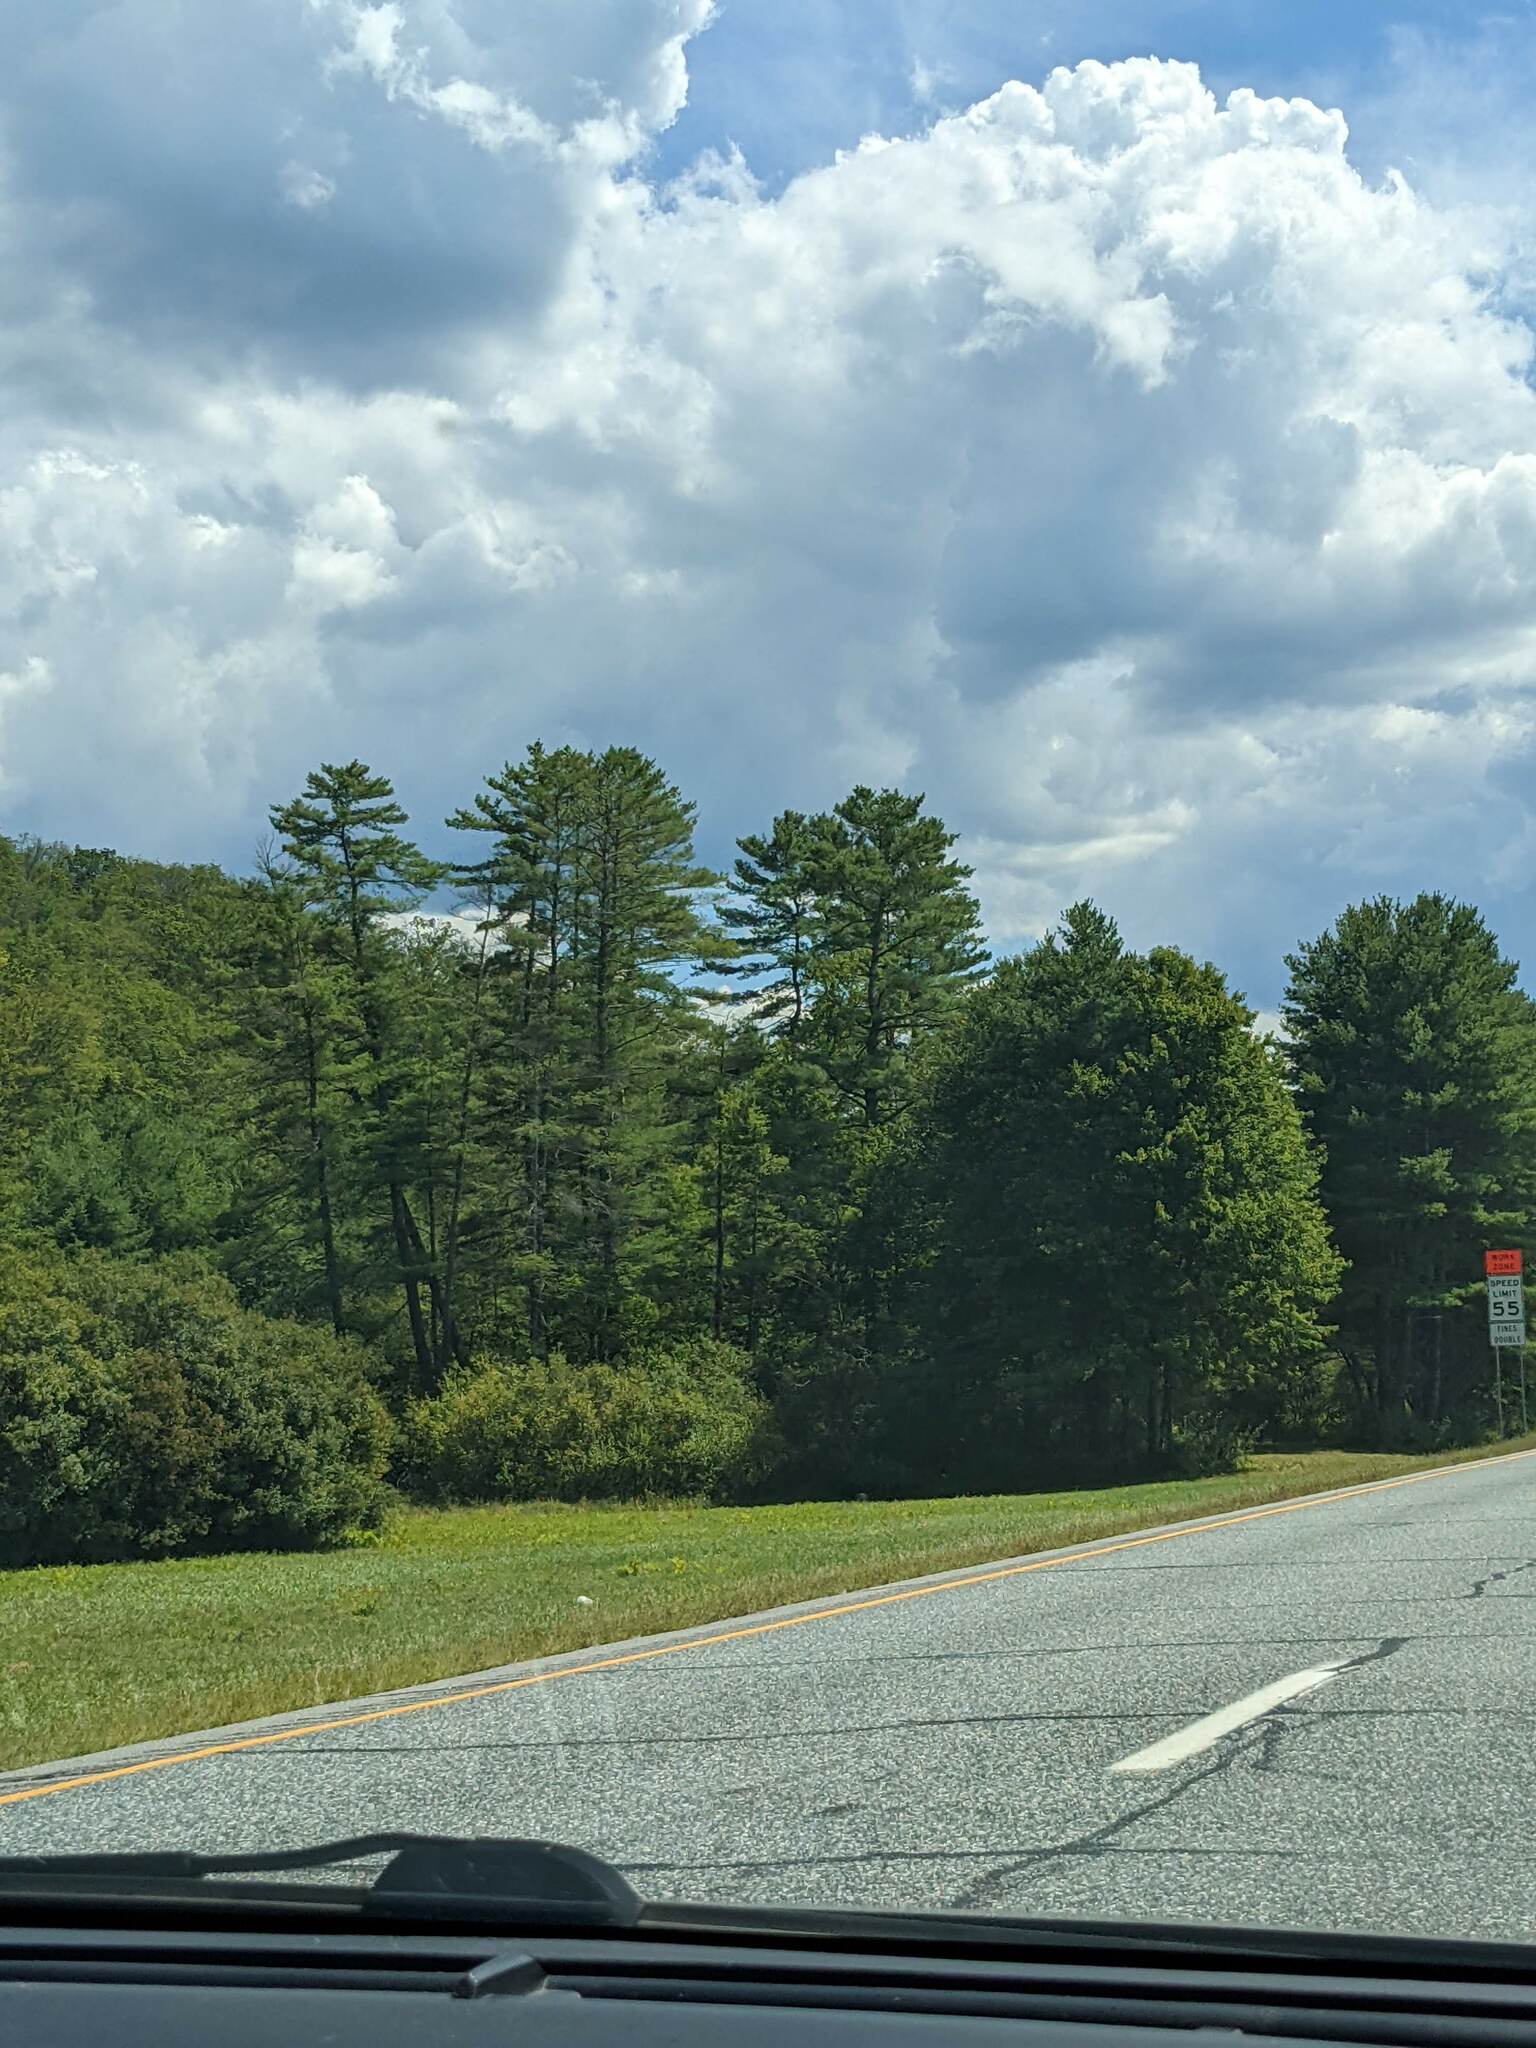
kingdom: Plantae
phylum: Tracheophyta
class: Pinopsida
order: Pinales
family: Pinaceae
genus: Pinus
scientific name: Pinus strobus
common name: Weymouth pine
